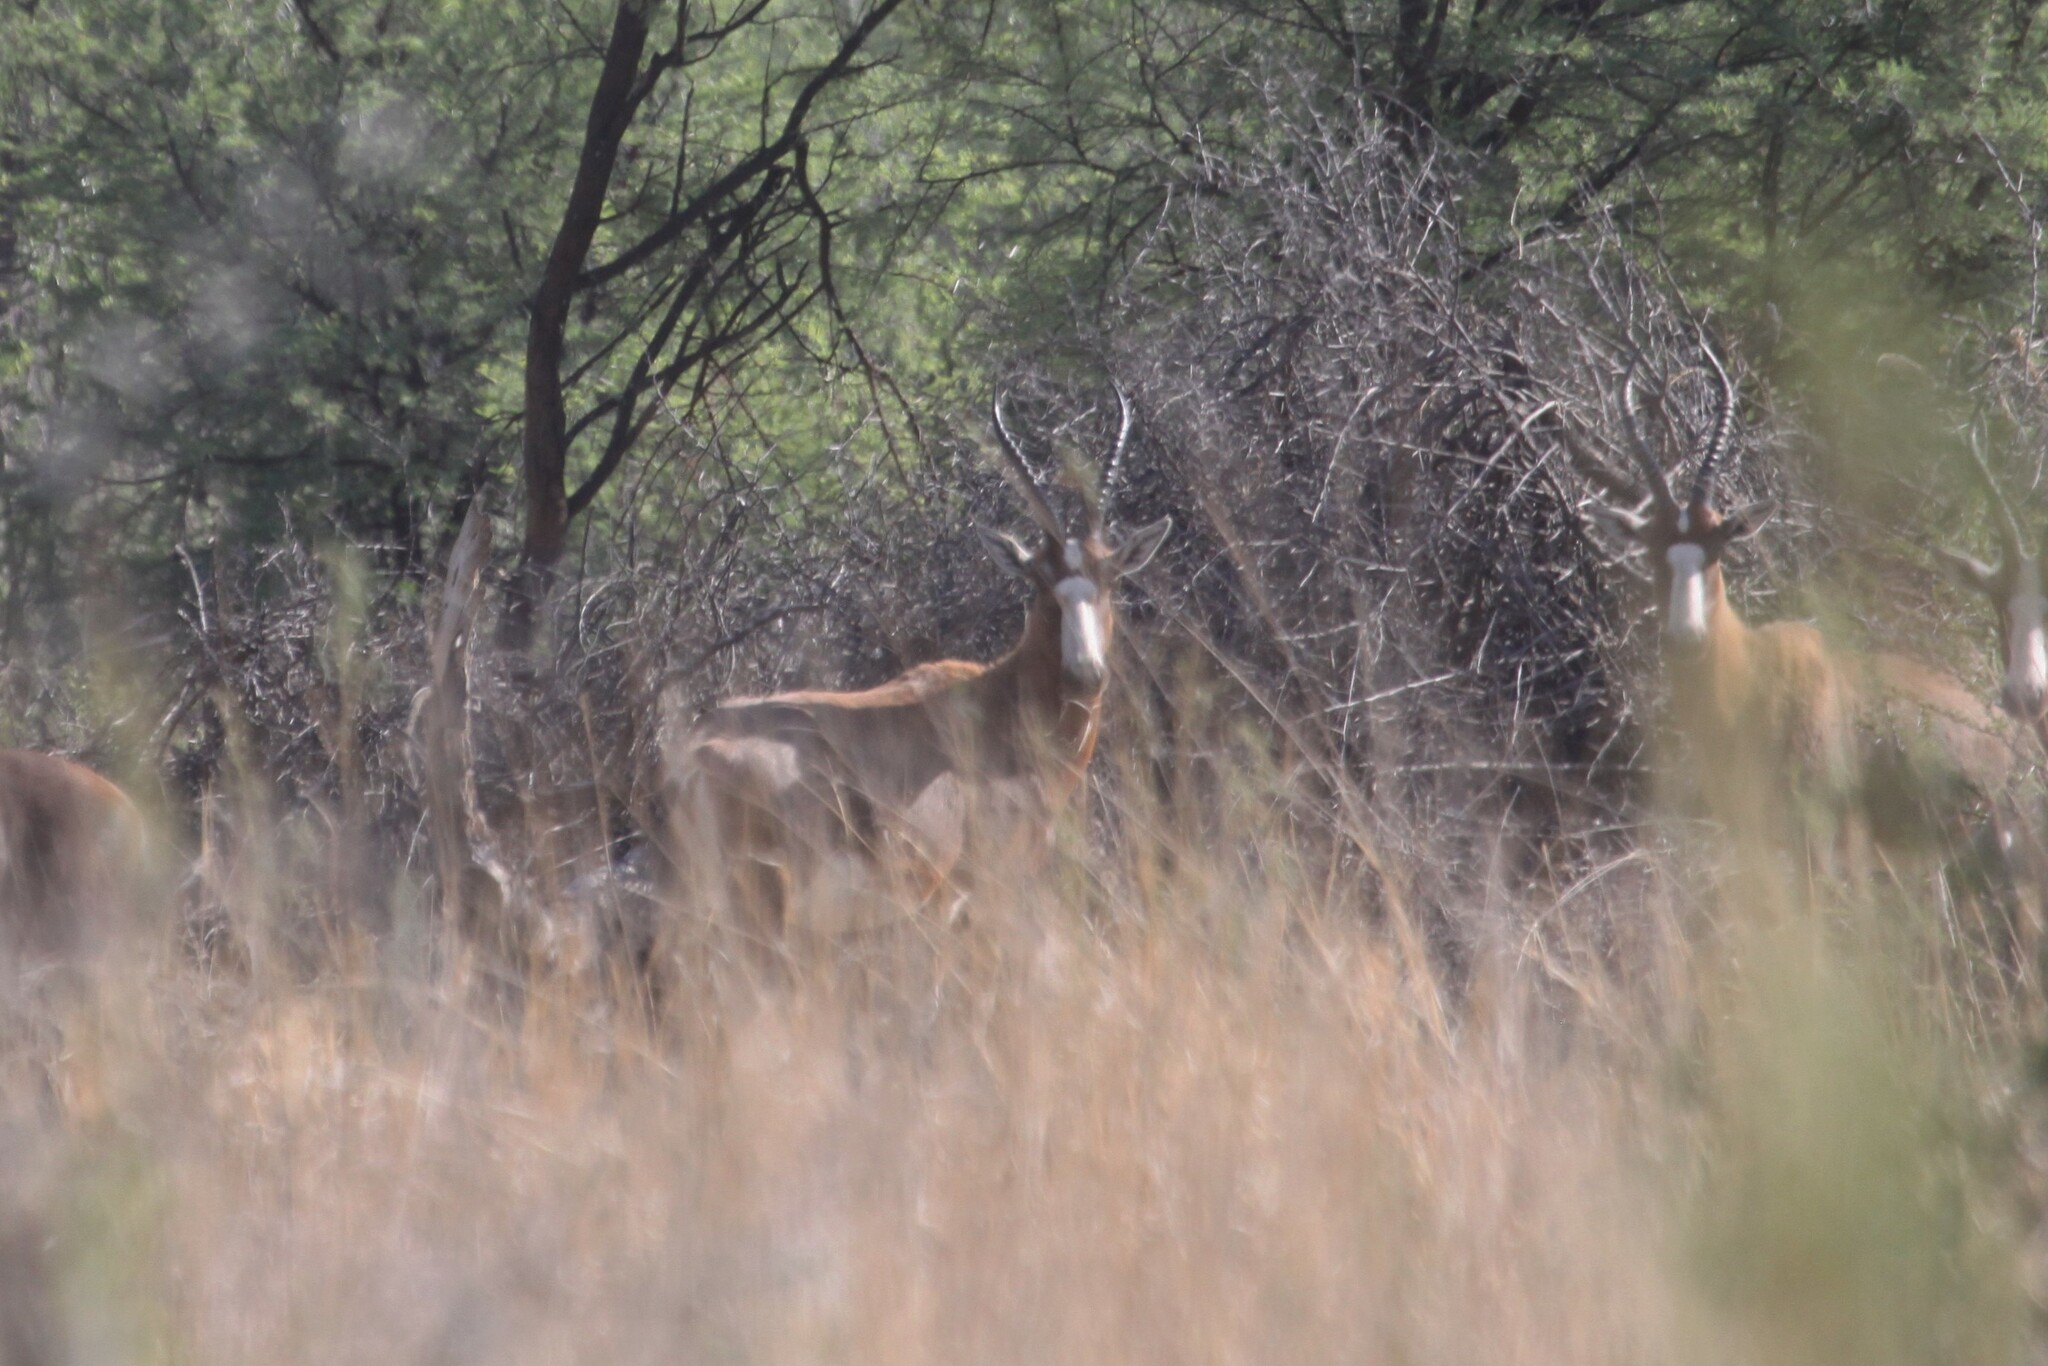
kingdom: Animalia
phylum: Chordata
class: Mammalia
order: Artiodactyla
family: Bovidae
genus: Damaliscus
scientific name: Damaliscus pygargus
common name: Bontebok
